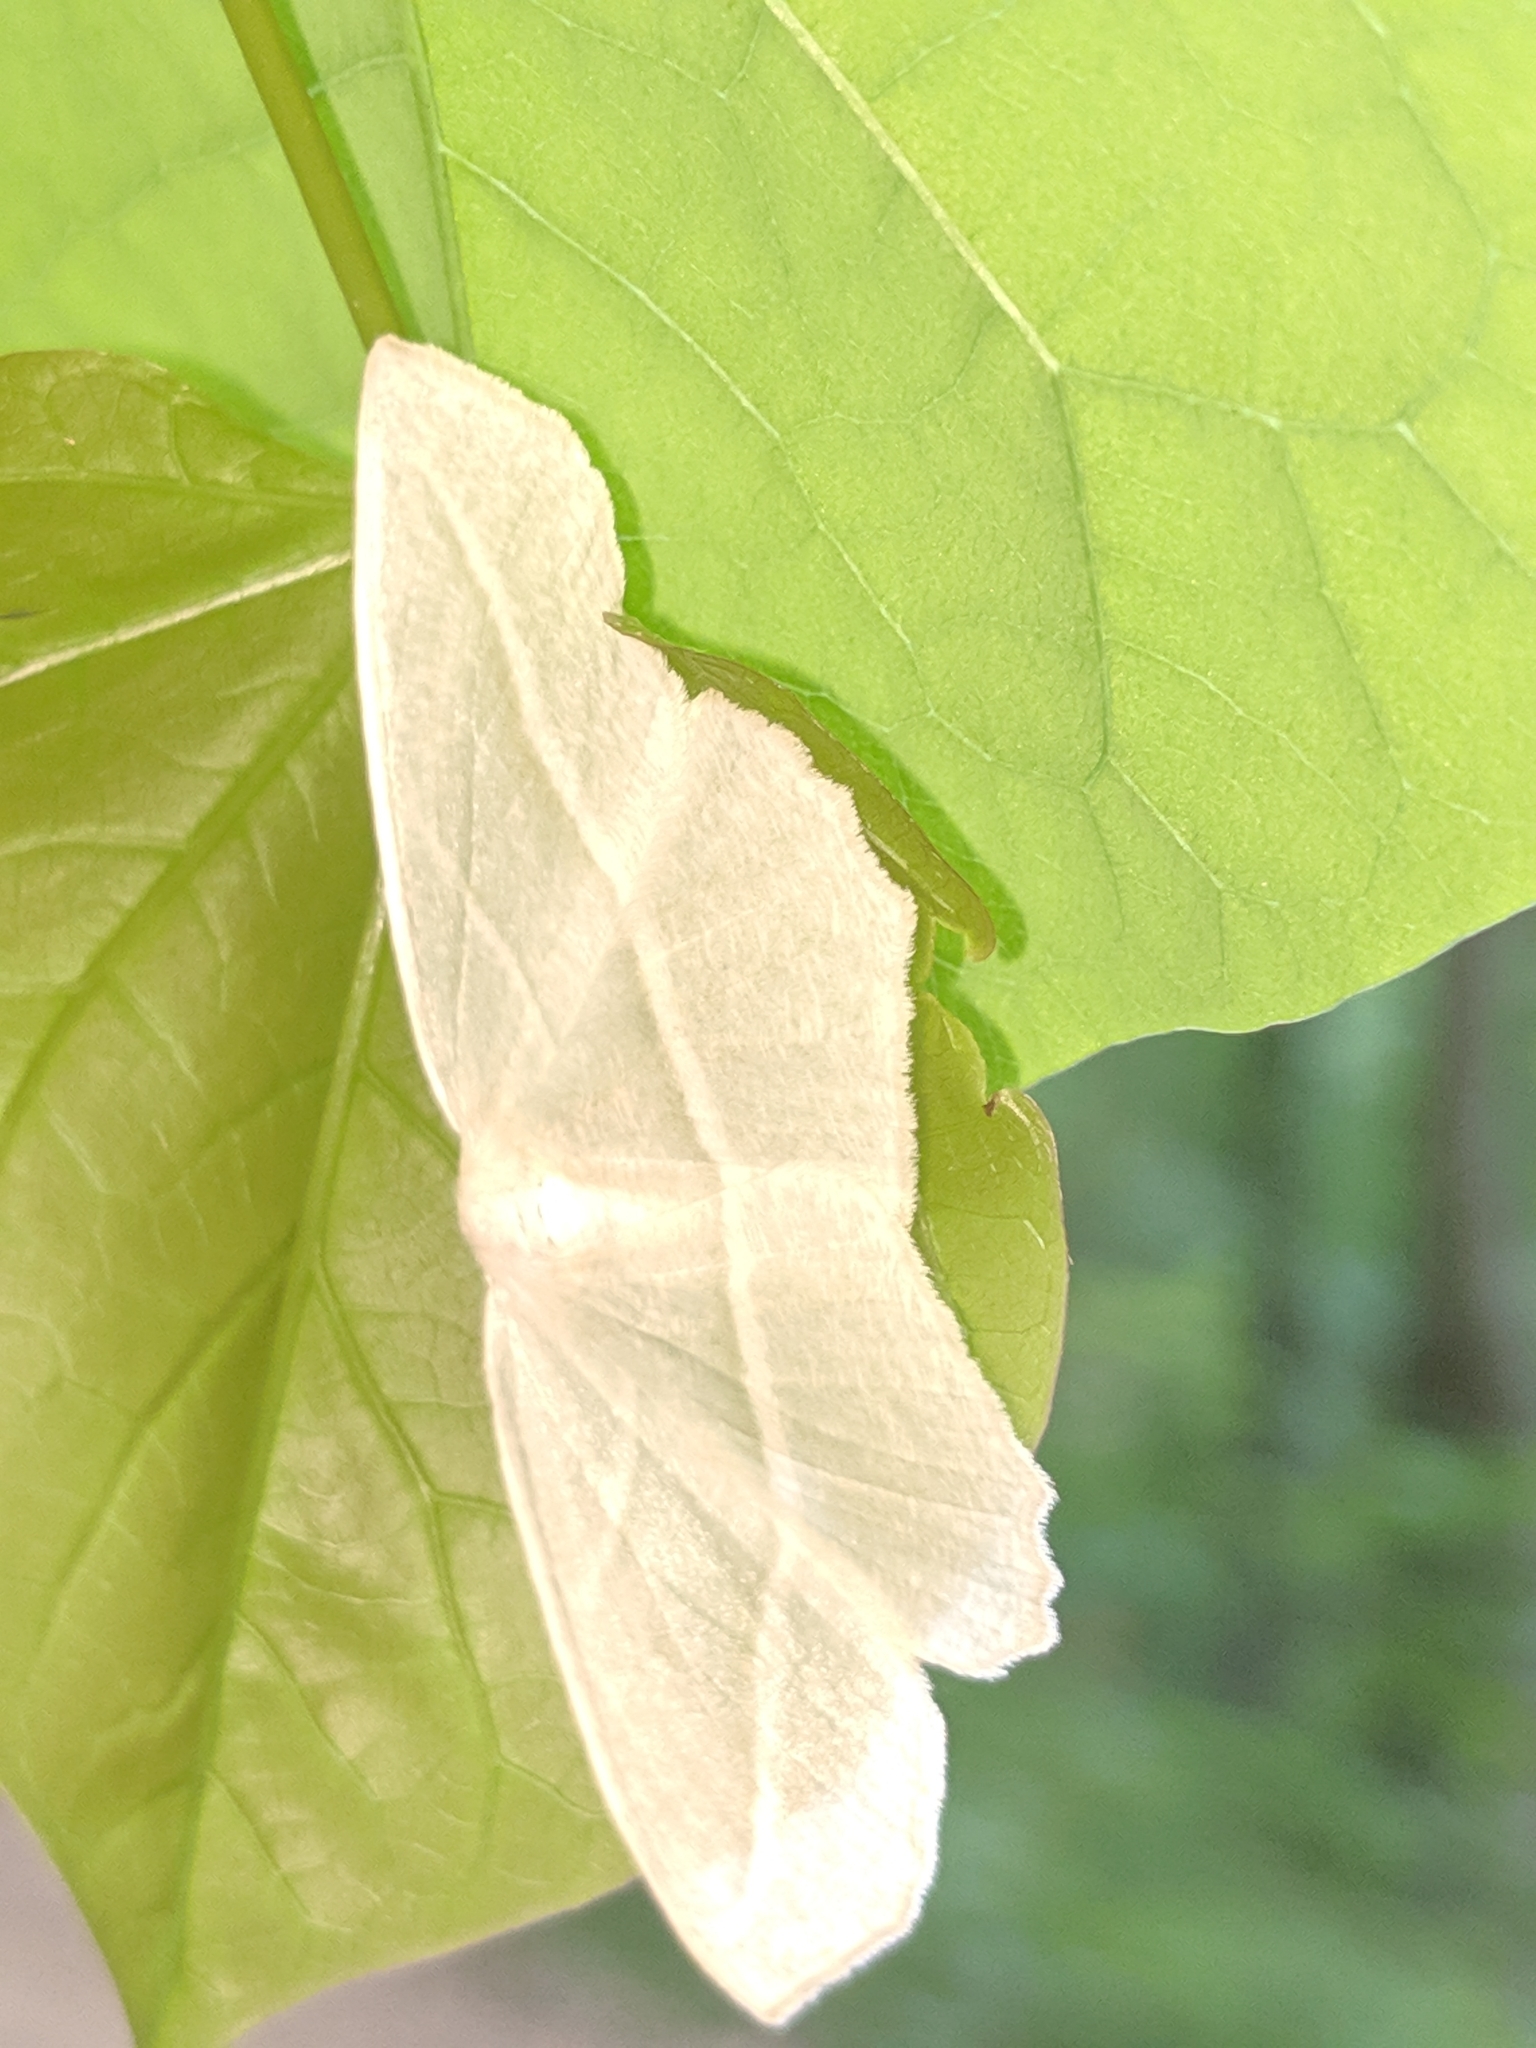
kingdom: Animalia
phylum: Arthropoda
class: Insecta
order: Lepidoptera
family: Geometridae
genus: Campaea
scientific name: Campaea perlata
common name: Fringed looper
